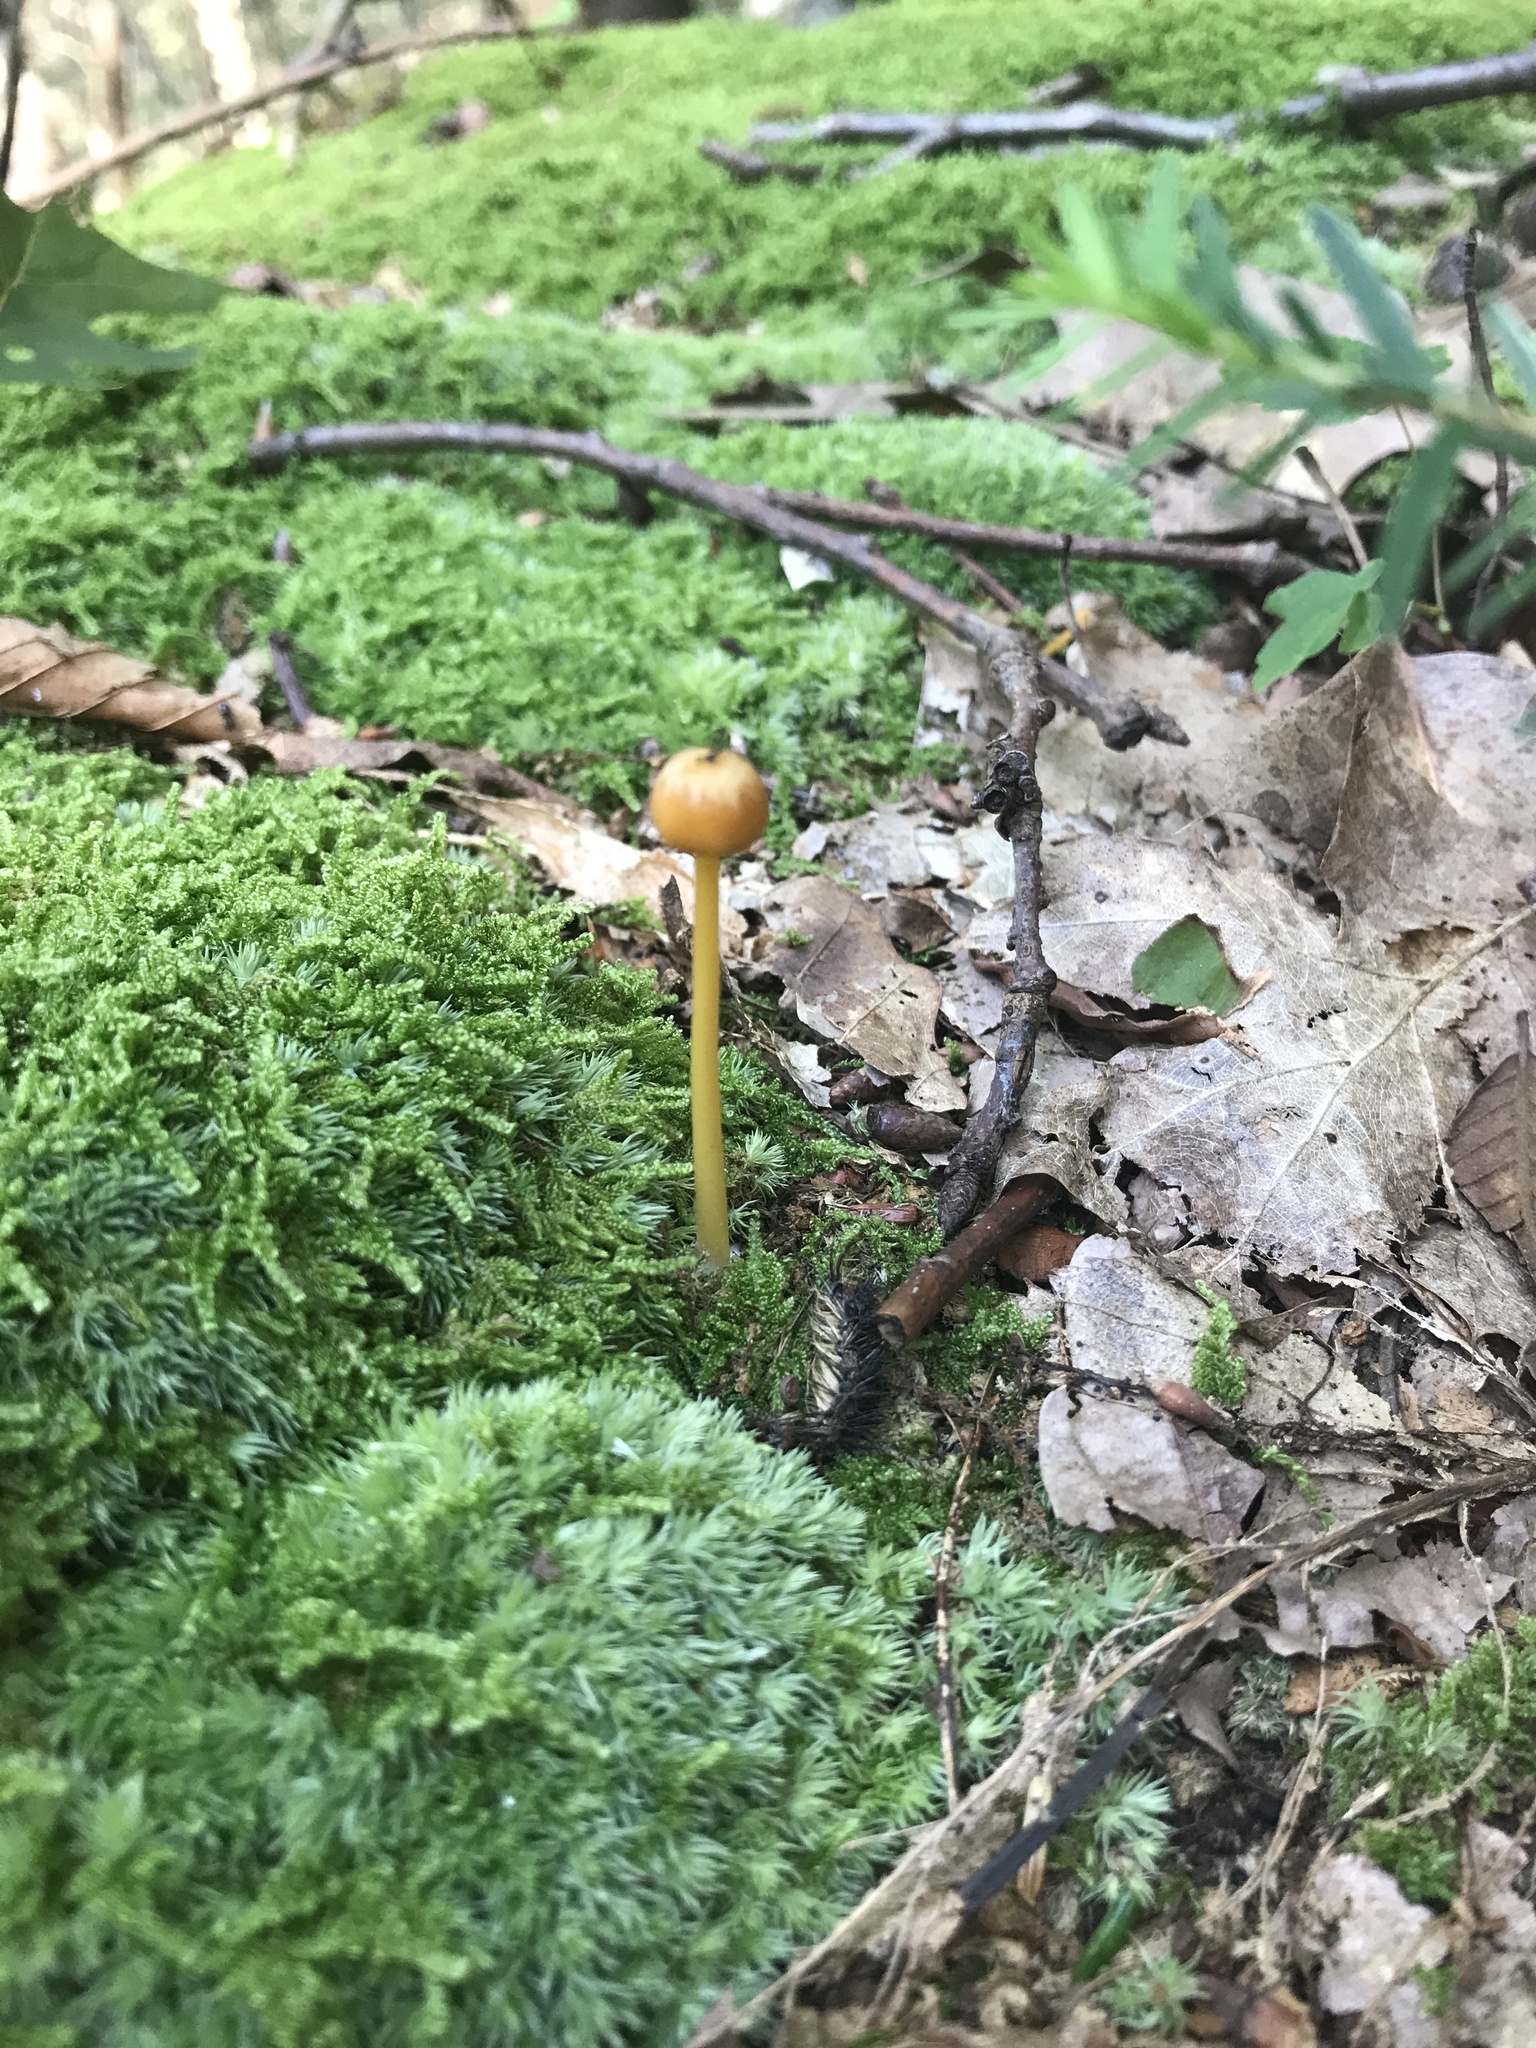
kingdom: Fungi
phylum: Basidiomycota
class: Agaricomycetes
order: Agaricales
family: Entolomataceae
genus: Entoloma
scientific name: Entoloma unicolor
